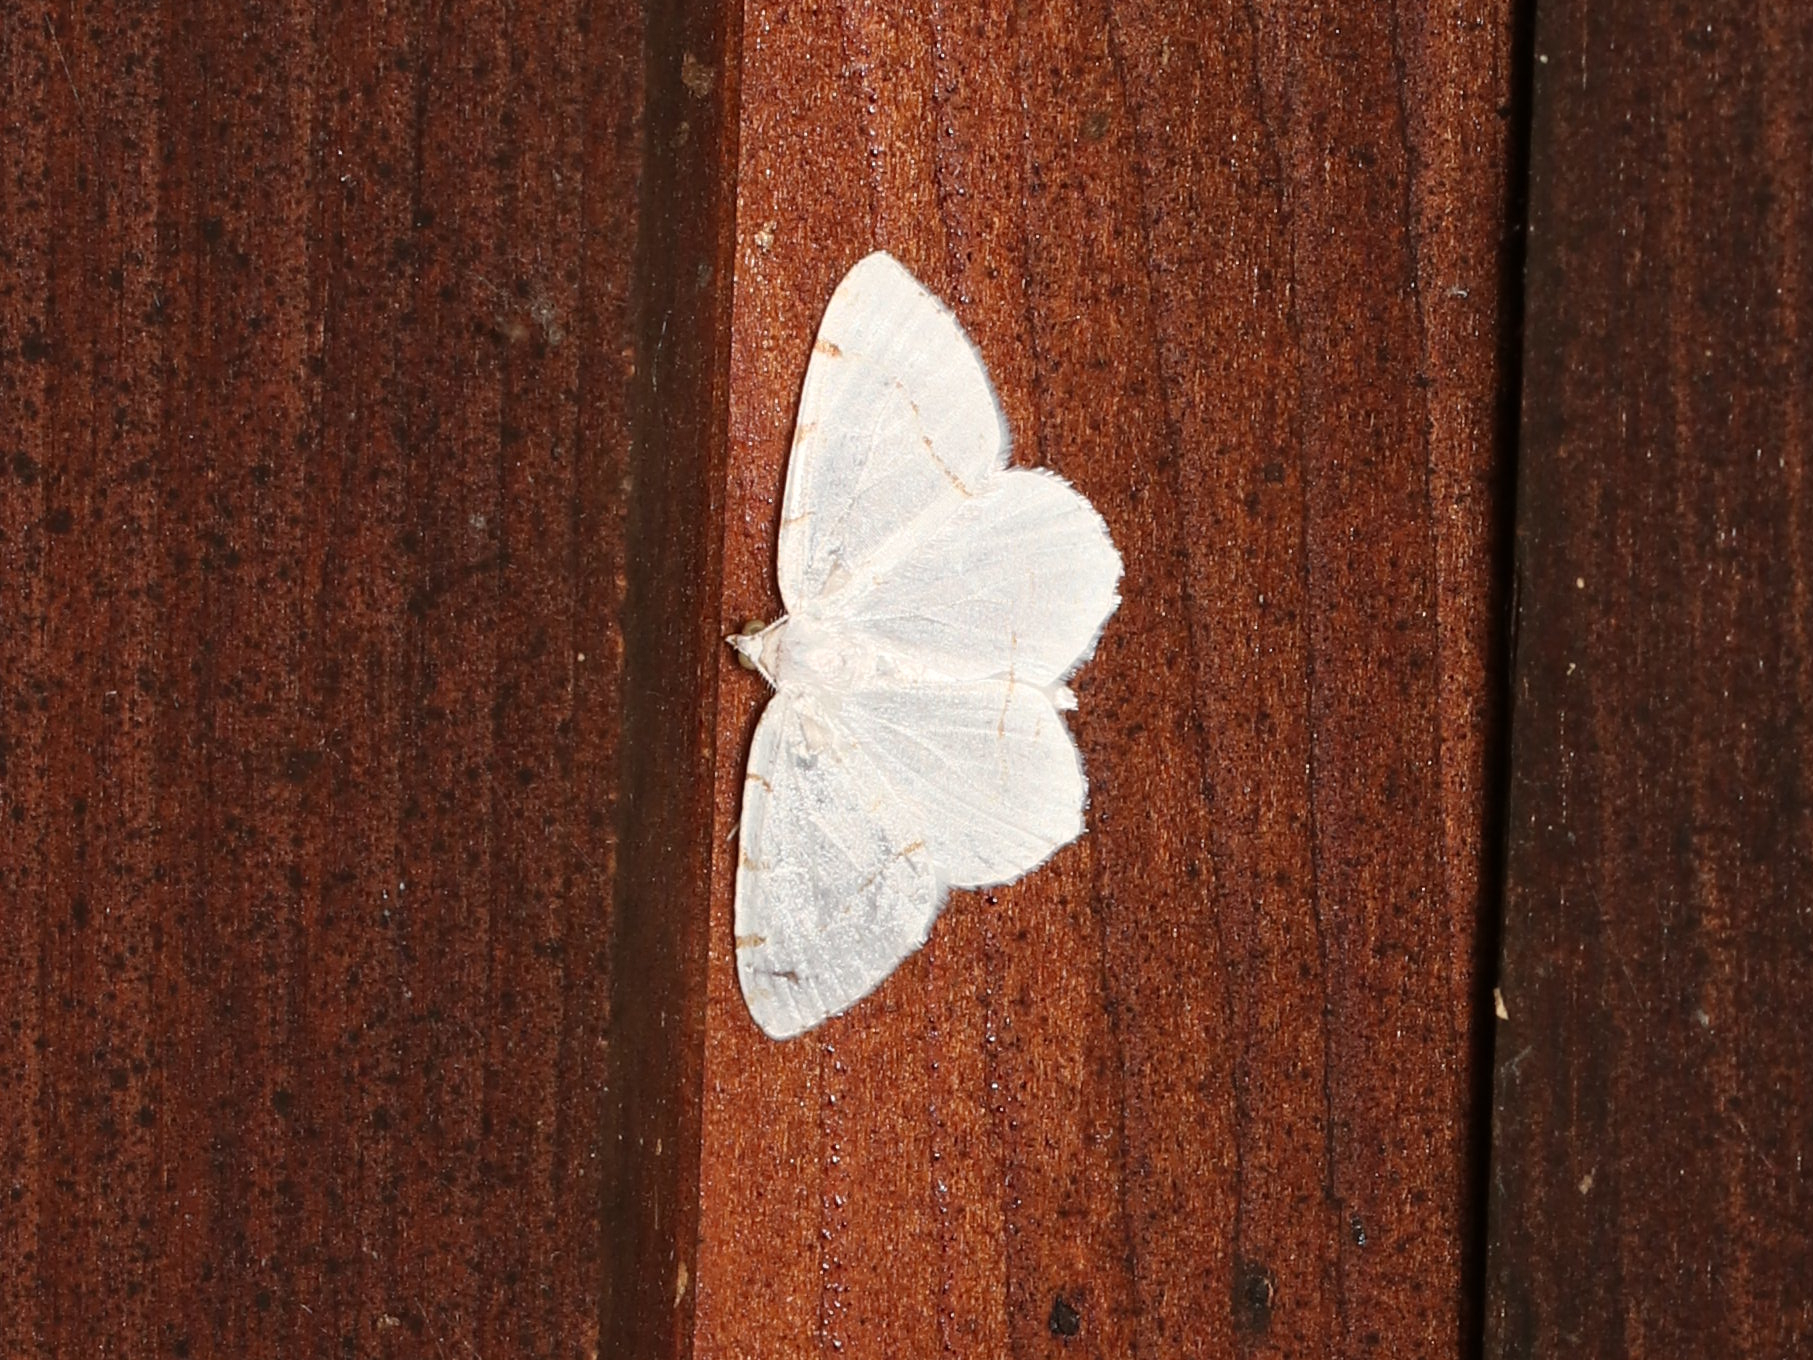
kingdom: Animalia
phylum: Arthropoda
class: Insecta
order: Lepidoptera
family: Geometridae
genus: Macaria
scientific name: Macaria pustularia
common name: Lesser maple spanworm moth
